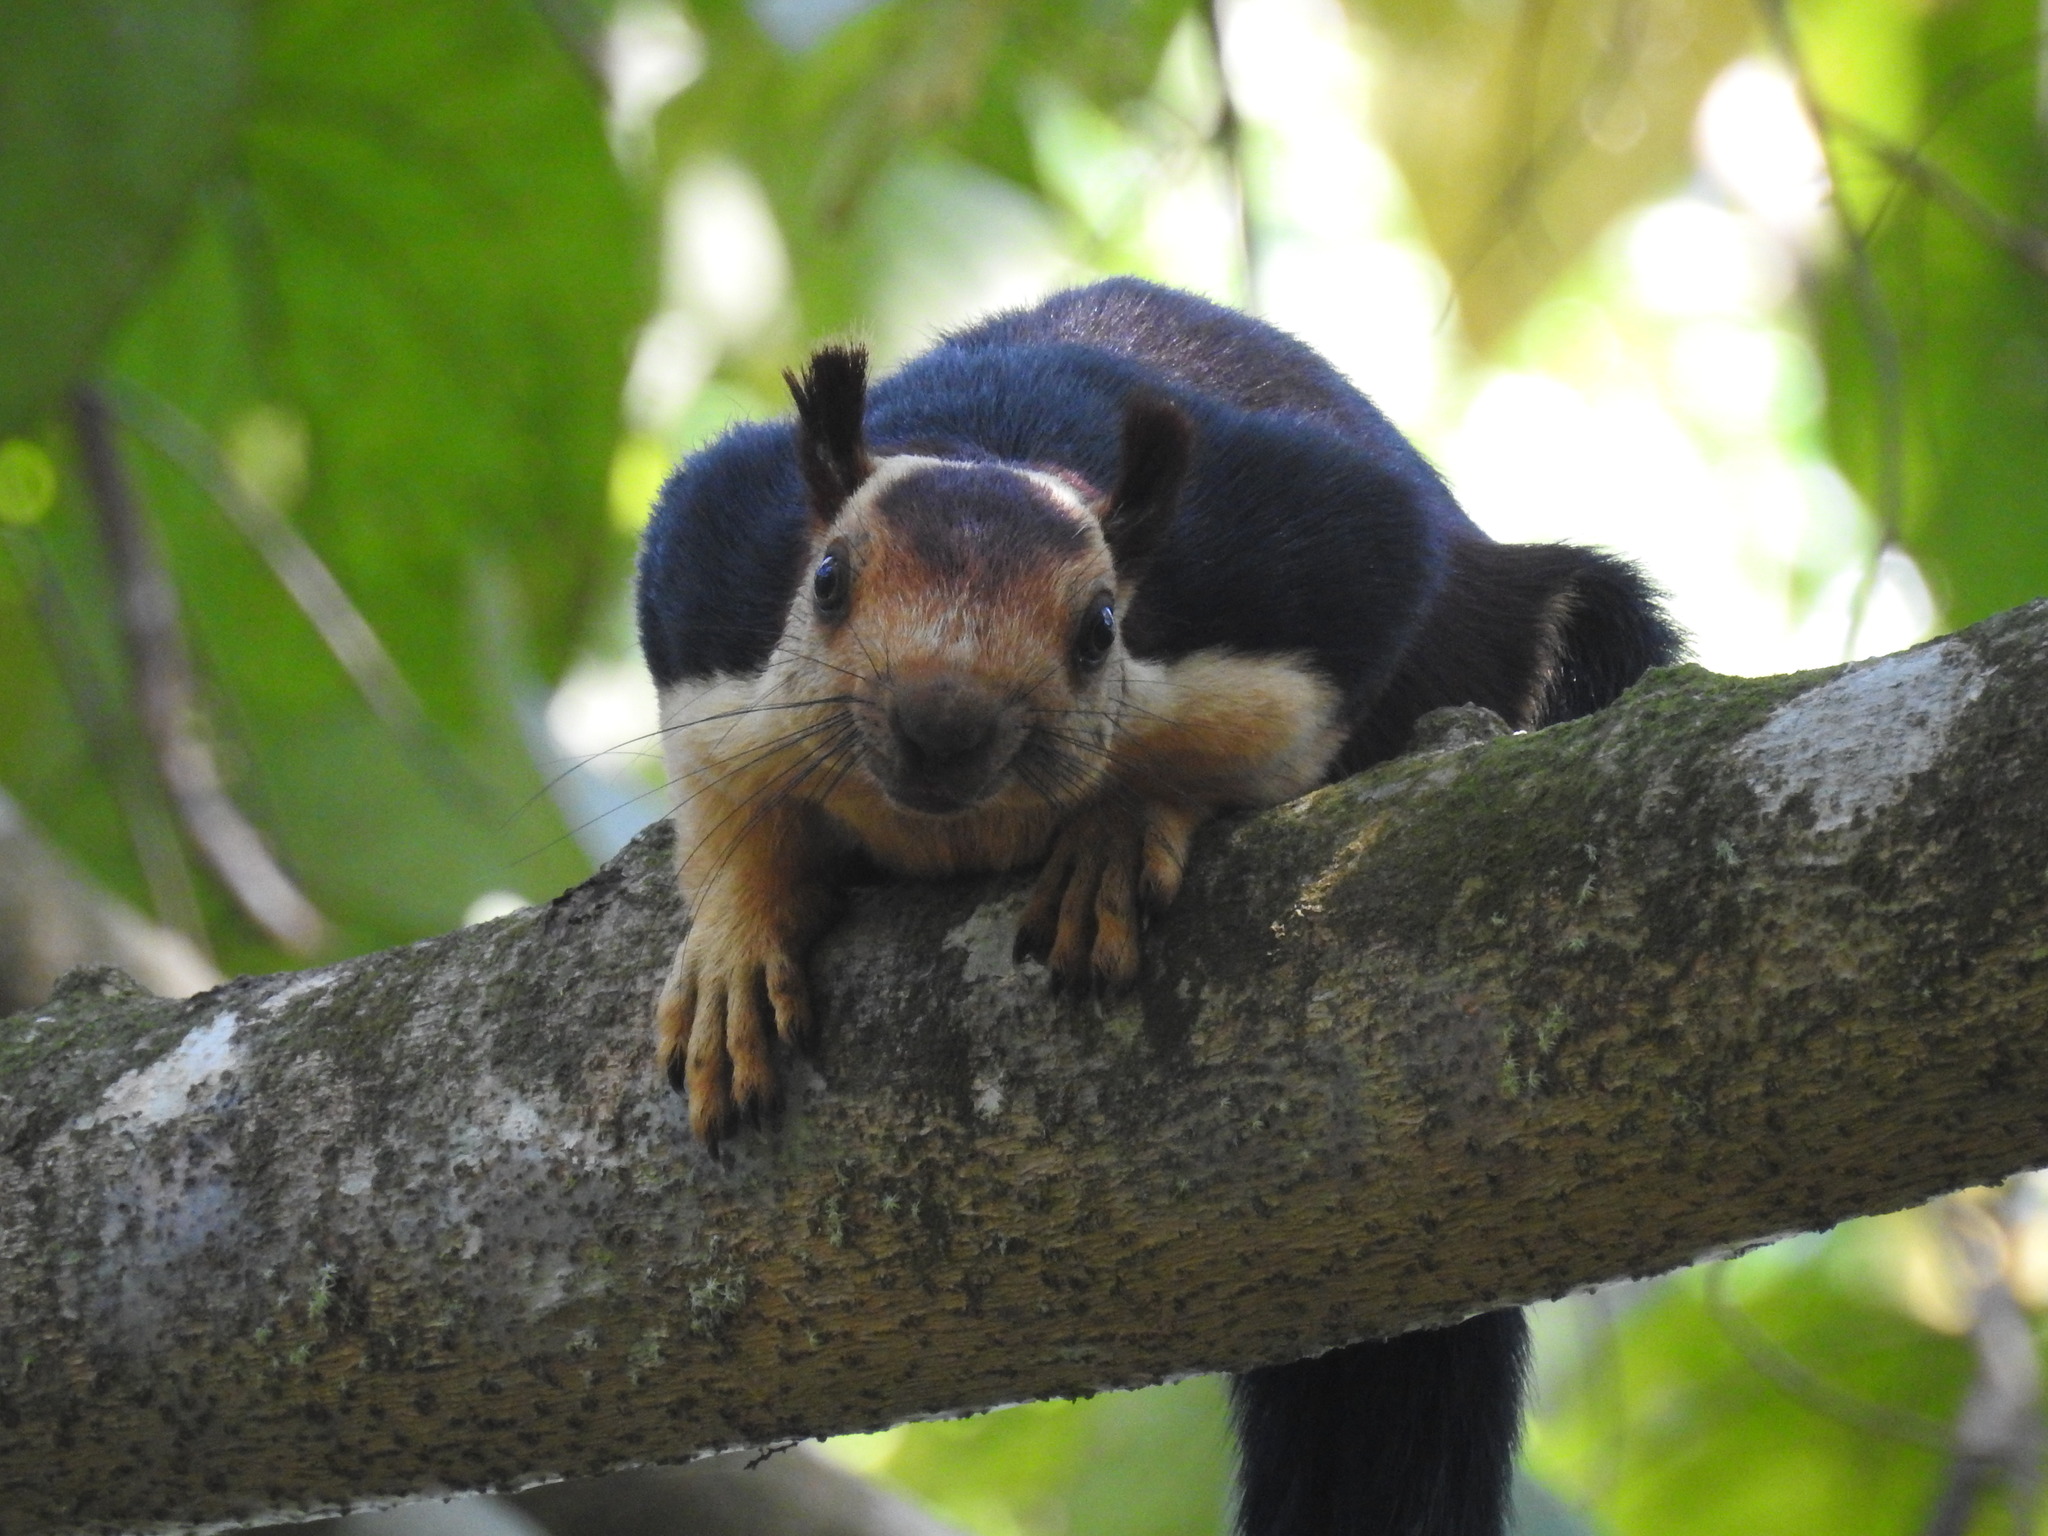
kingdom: Animalia
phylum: Chordata
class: Mammalia
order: Rodentia
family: Sciuridae
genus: Ratufa
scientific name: Ratufa indica
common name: Indian giant squirrel
